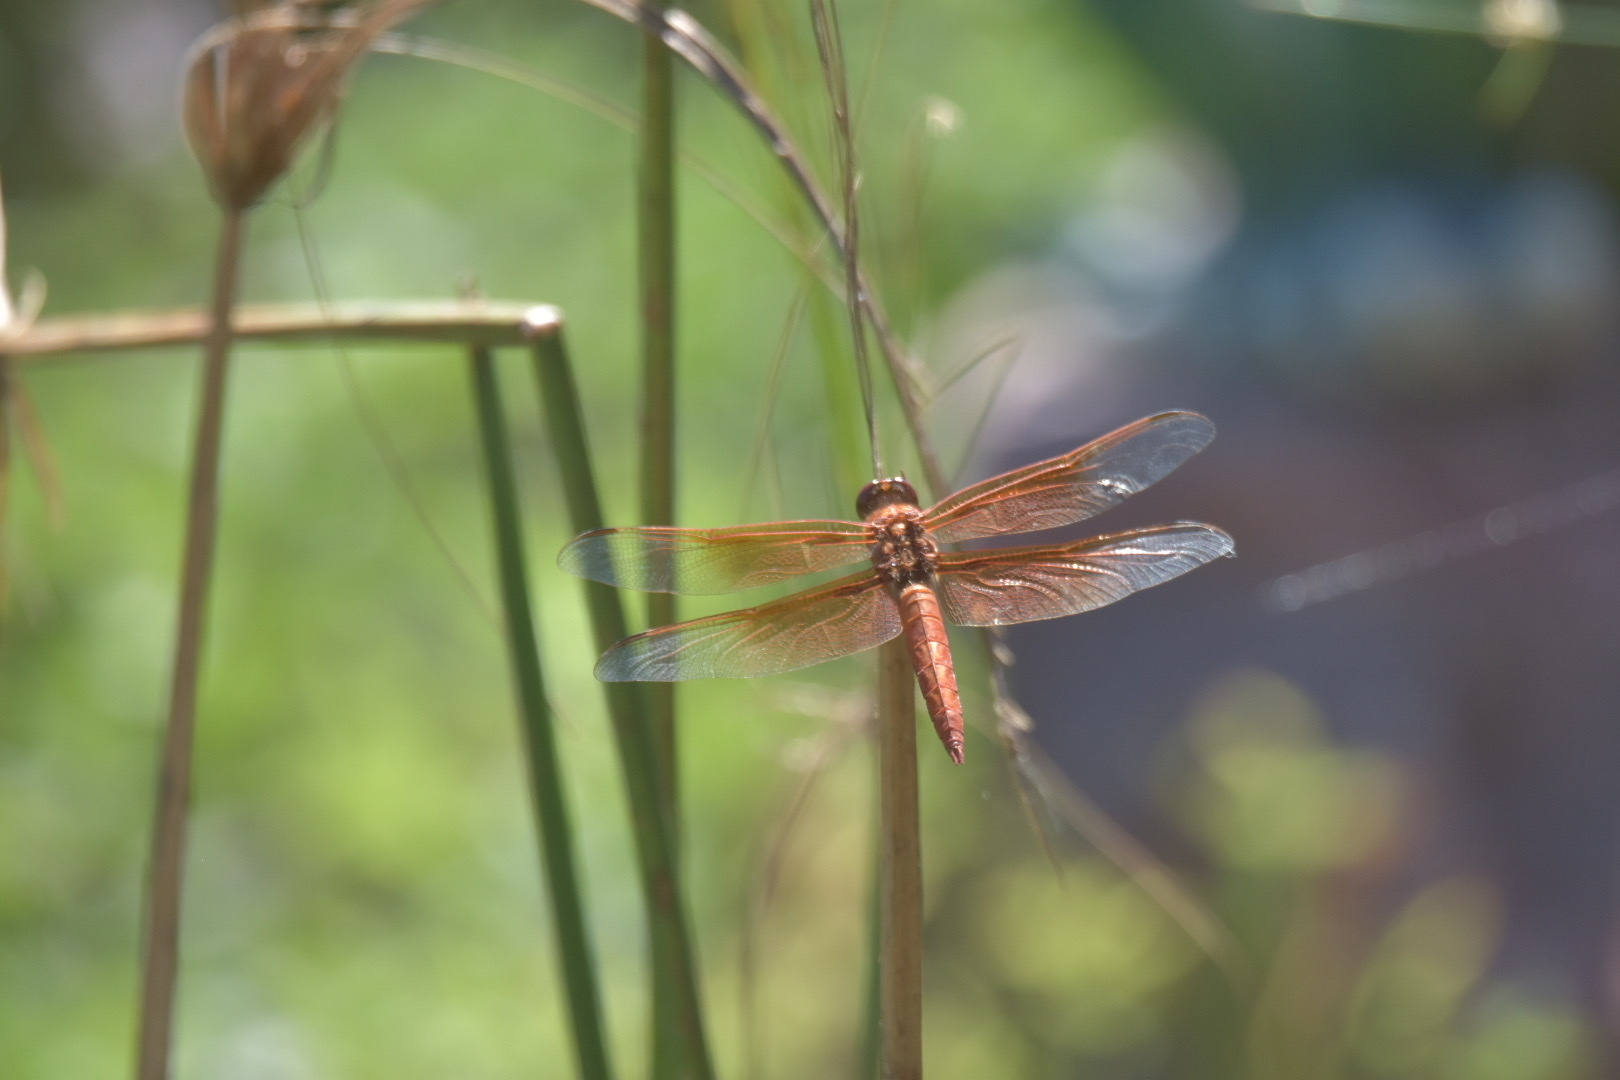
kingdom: Animalia
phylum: Arthropoda
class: Insecta
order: Odonata
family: Libellulidae
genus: Libellula
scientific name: Libellula saturata
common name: Flame skimmer
